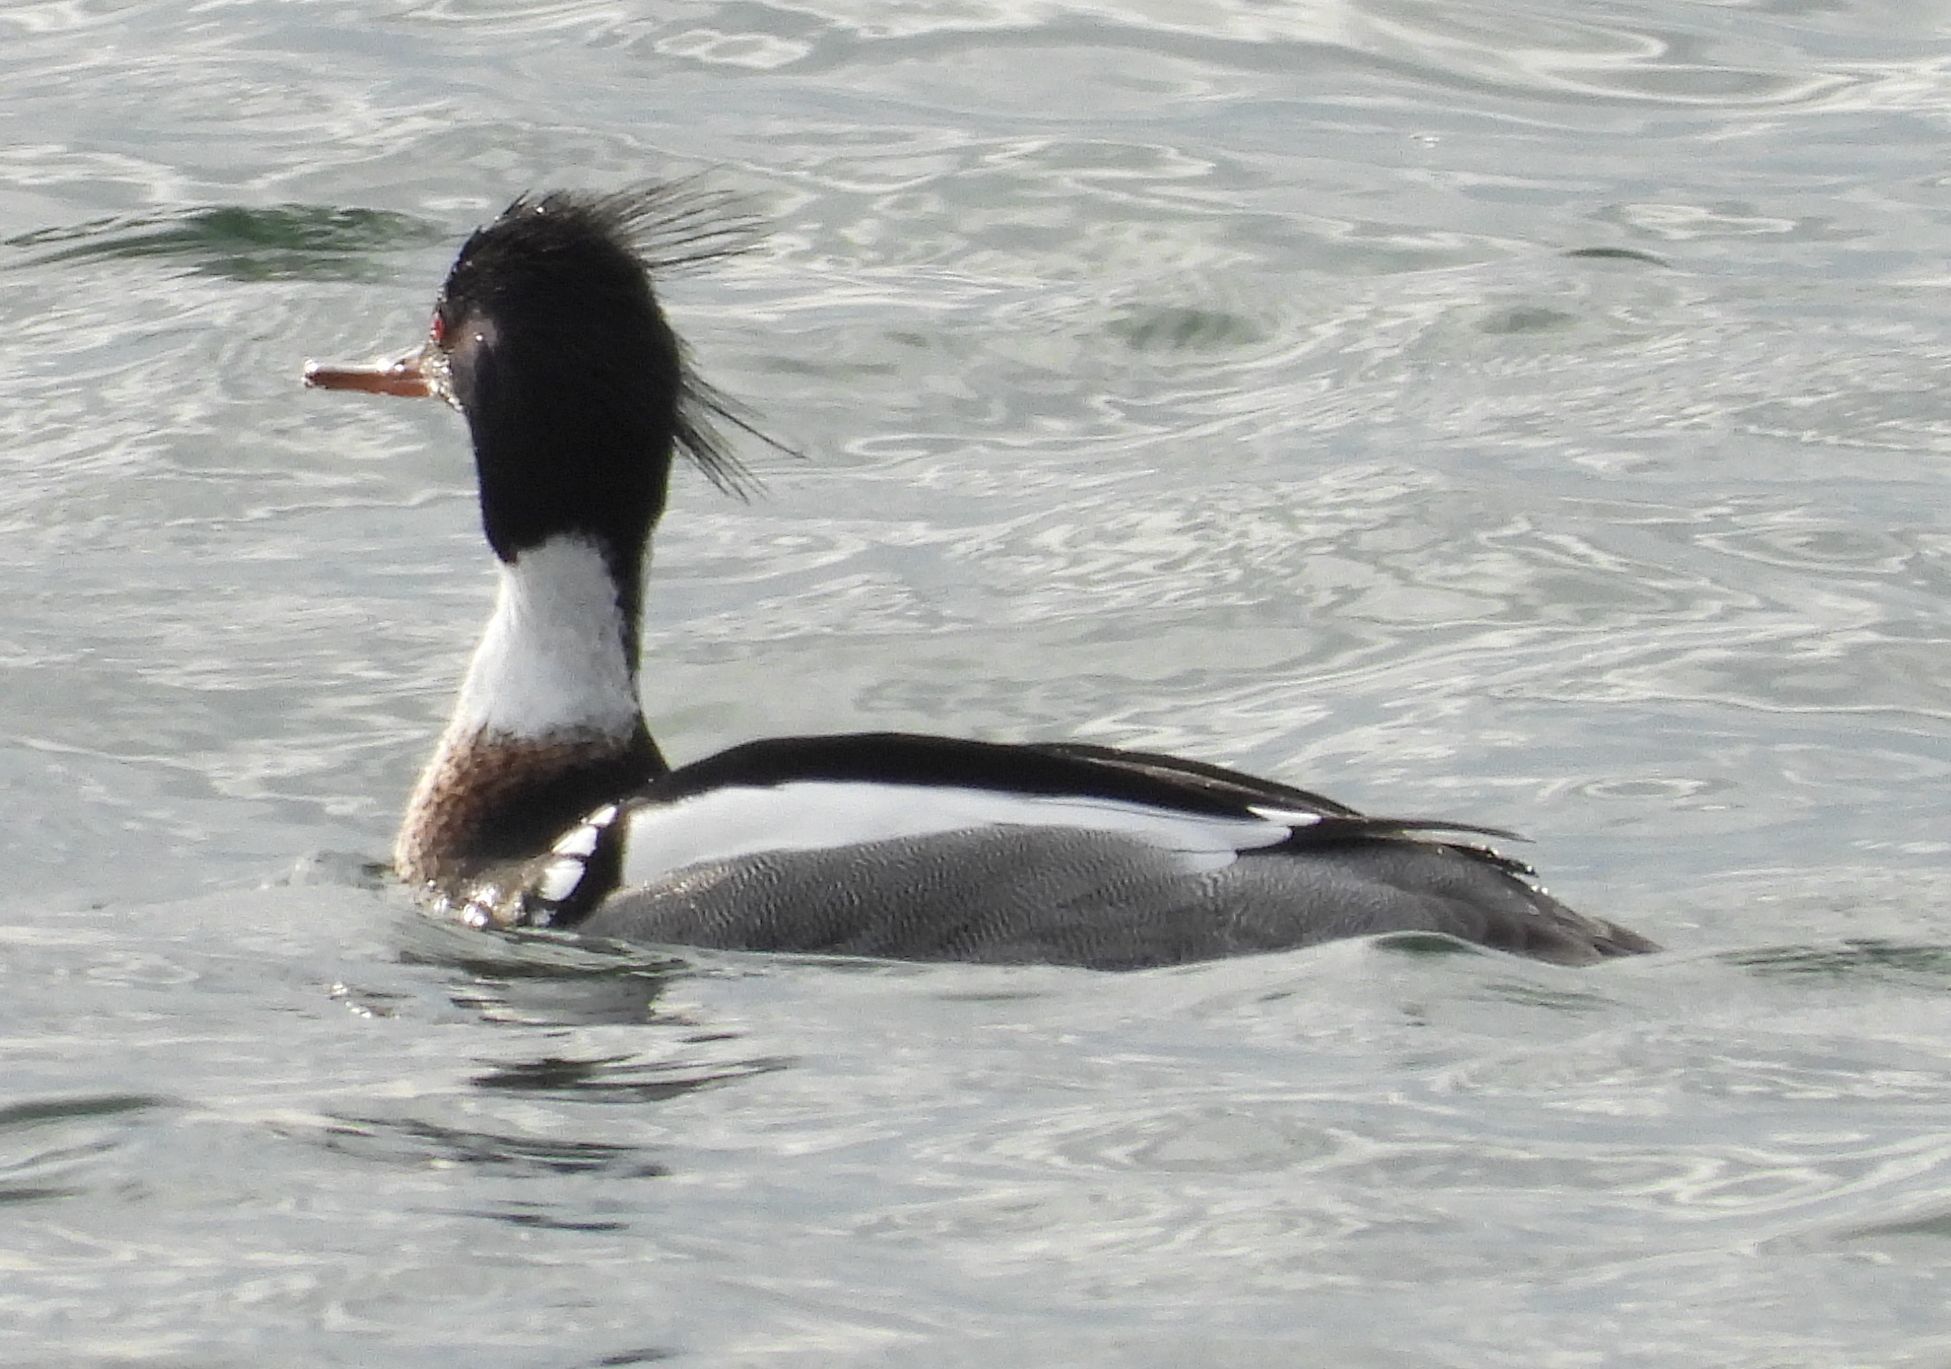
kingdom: Animalia
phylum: Chordata
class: Aves
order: Anseriformes
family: Anatidae
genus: Mergus
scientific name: Mergus serrator
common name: Red-breasted merganser
